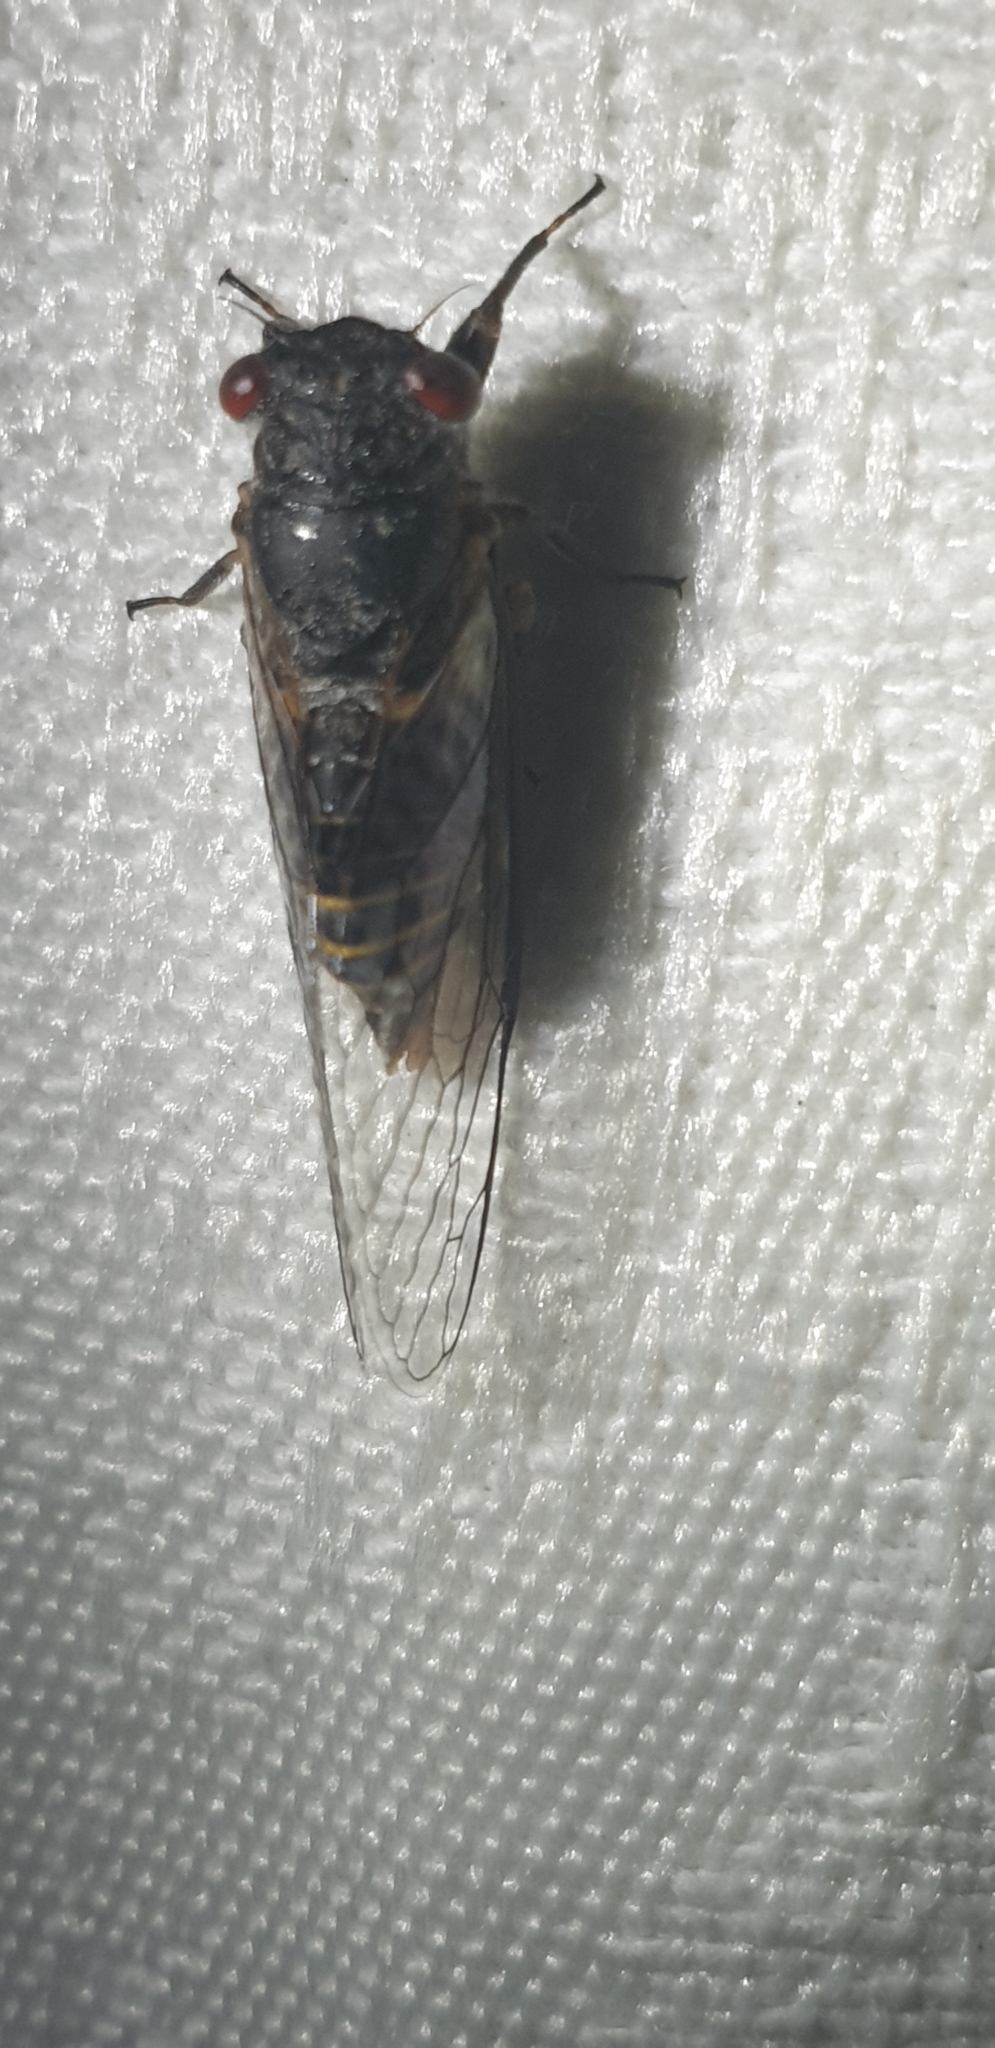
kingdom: Animalia
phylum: Arthropoda
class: Insecta
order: Hemiptera
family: Cicadidae
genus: Popplepsalta
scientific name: Popplepsalta
